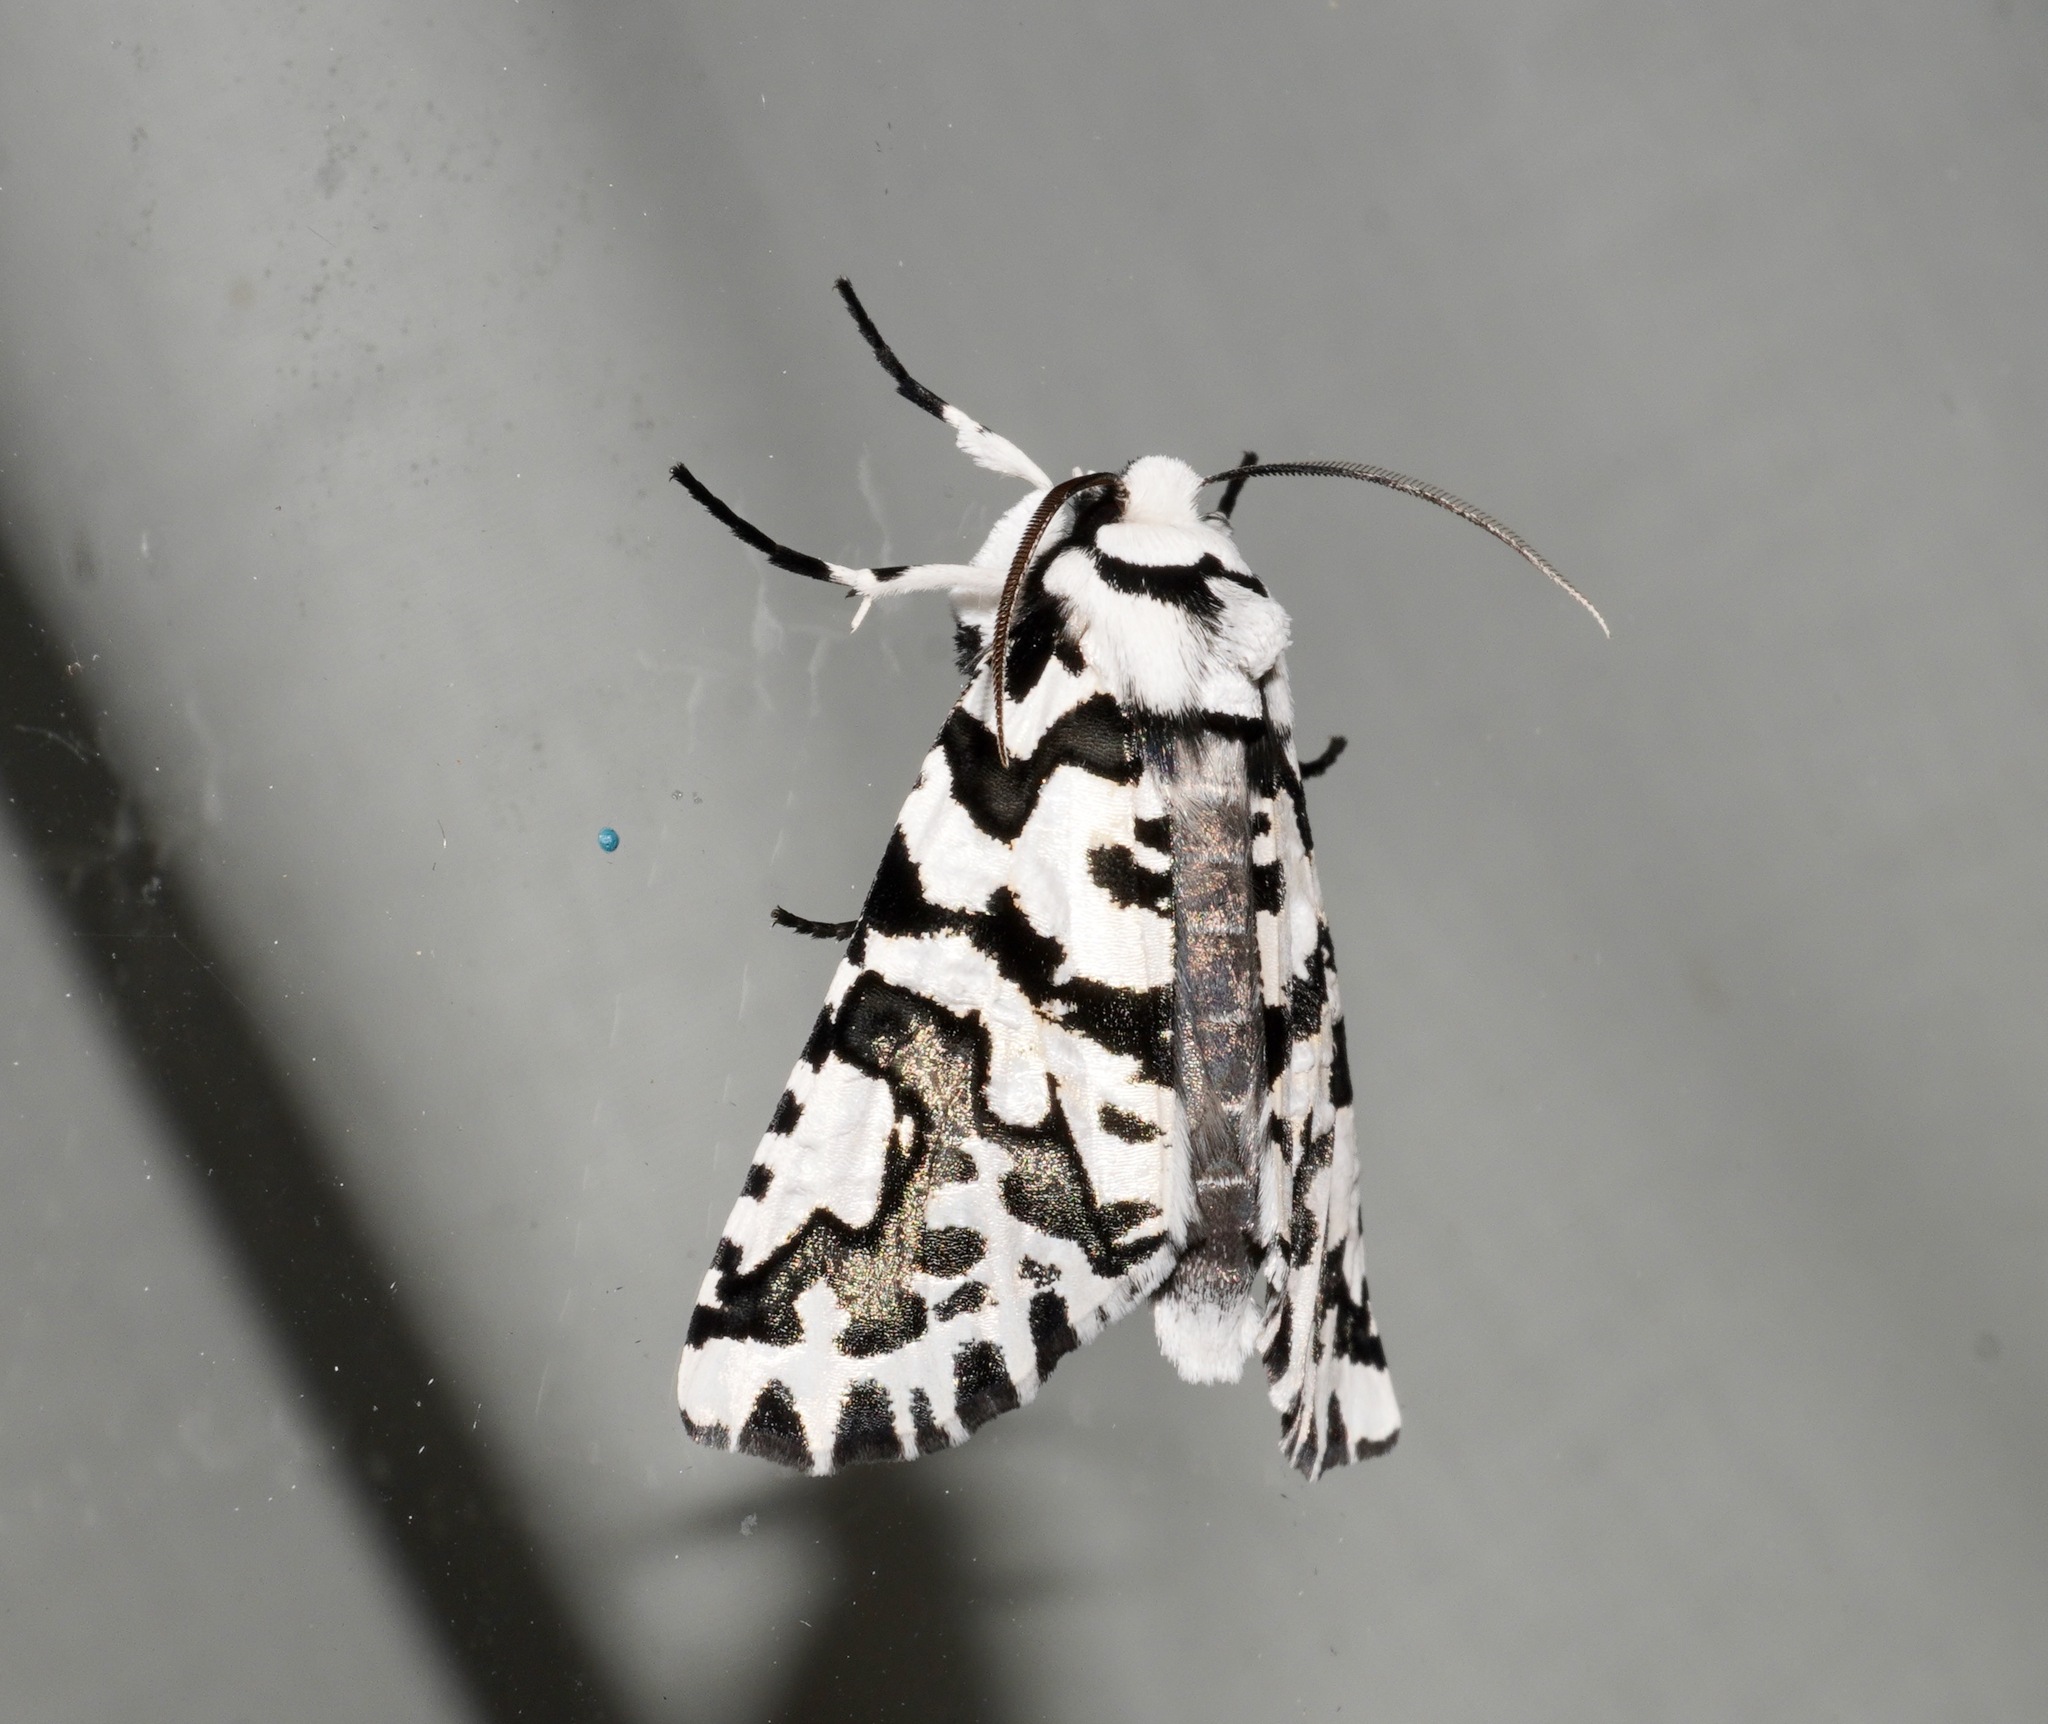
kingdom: Animalia
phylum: Arthropoda
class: Insecta
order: Lepidoptera
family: Geometridae
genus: Declana
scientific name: Declana
